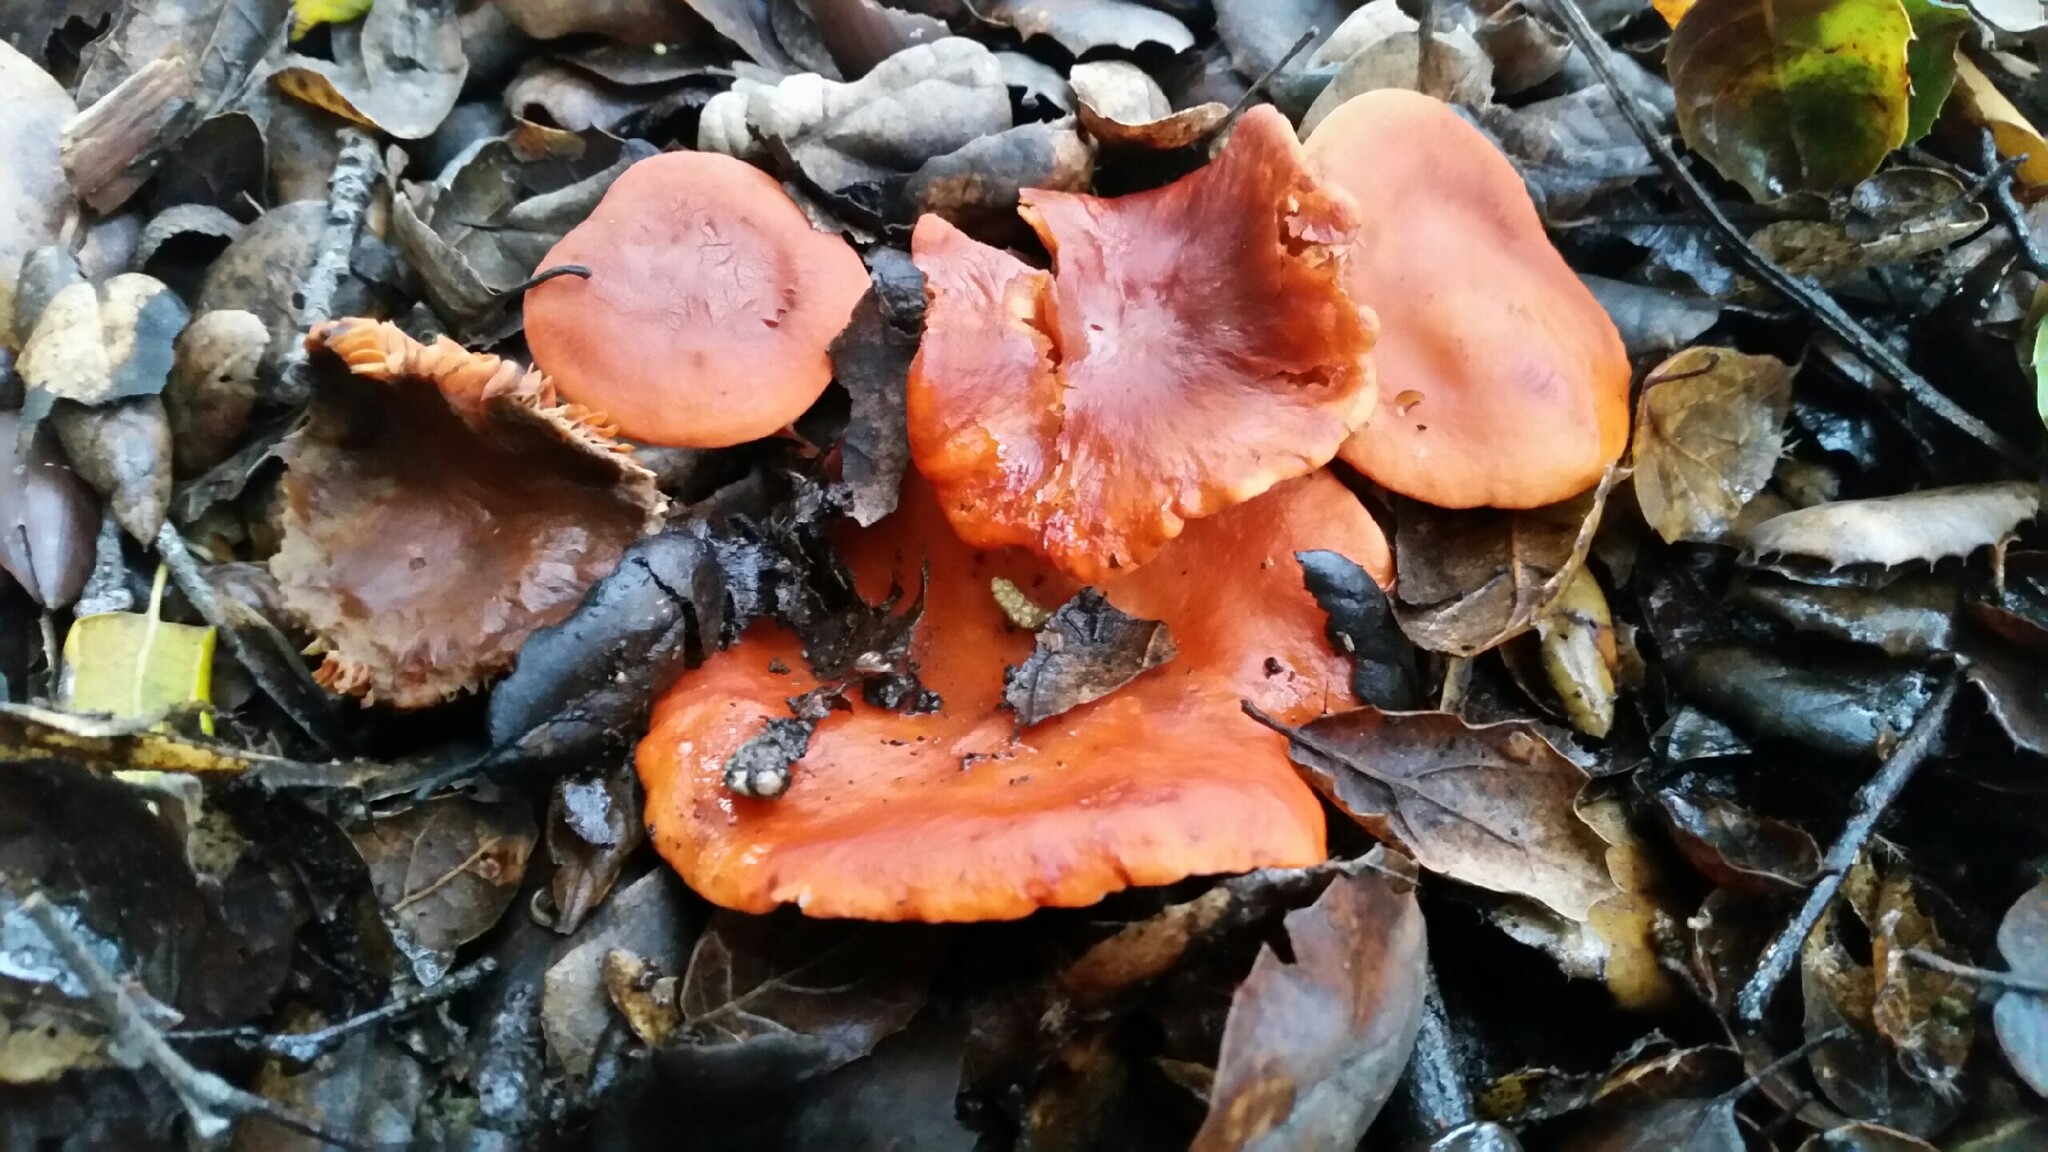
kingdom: Fungi
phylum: Basidiomycota
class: Agaricomycetes
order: Russulales
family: Russulaceae
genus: Lactarius
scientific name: Lactarius rubidus
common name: Candy cap
